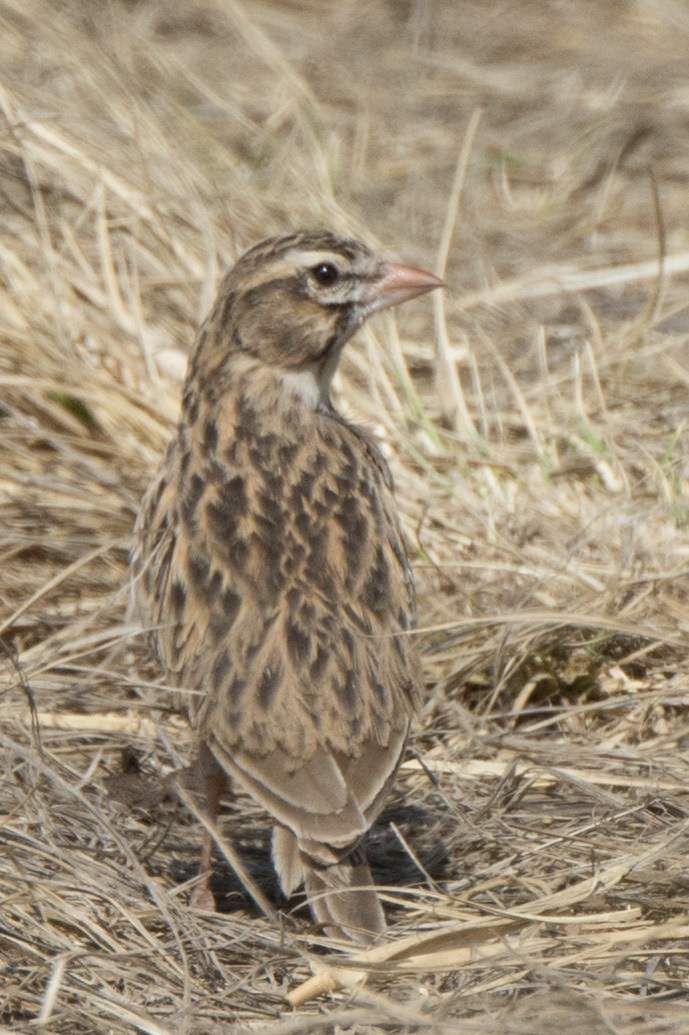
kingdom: Animalia
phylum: Chordata
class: Aves
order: Passeriformes
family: Alaudidae
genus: Spizocorys
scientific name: Spizocorys conirostris
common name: Pink-billed lark
